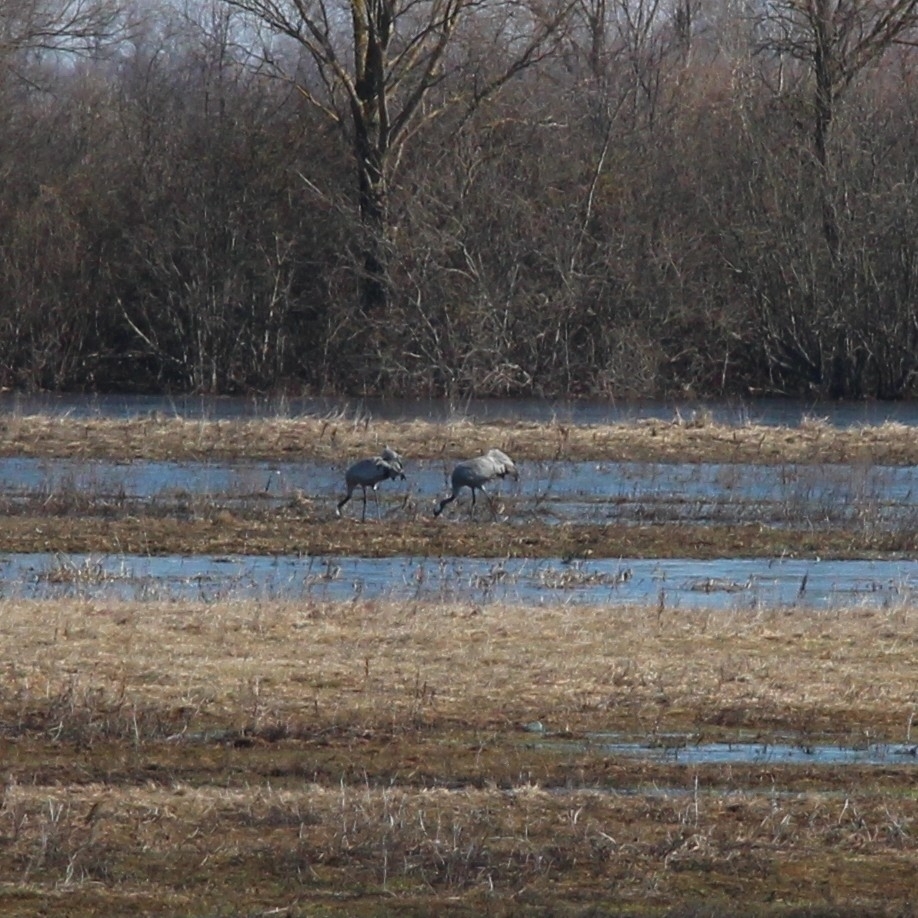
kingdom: Animalia
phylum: Chordata
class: Aves
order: Gruiformes
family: Gruidae
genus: Grus
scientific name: Grus grus
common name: Common crane
